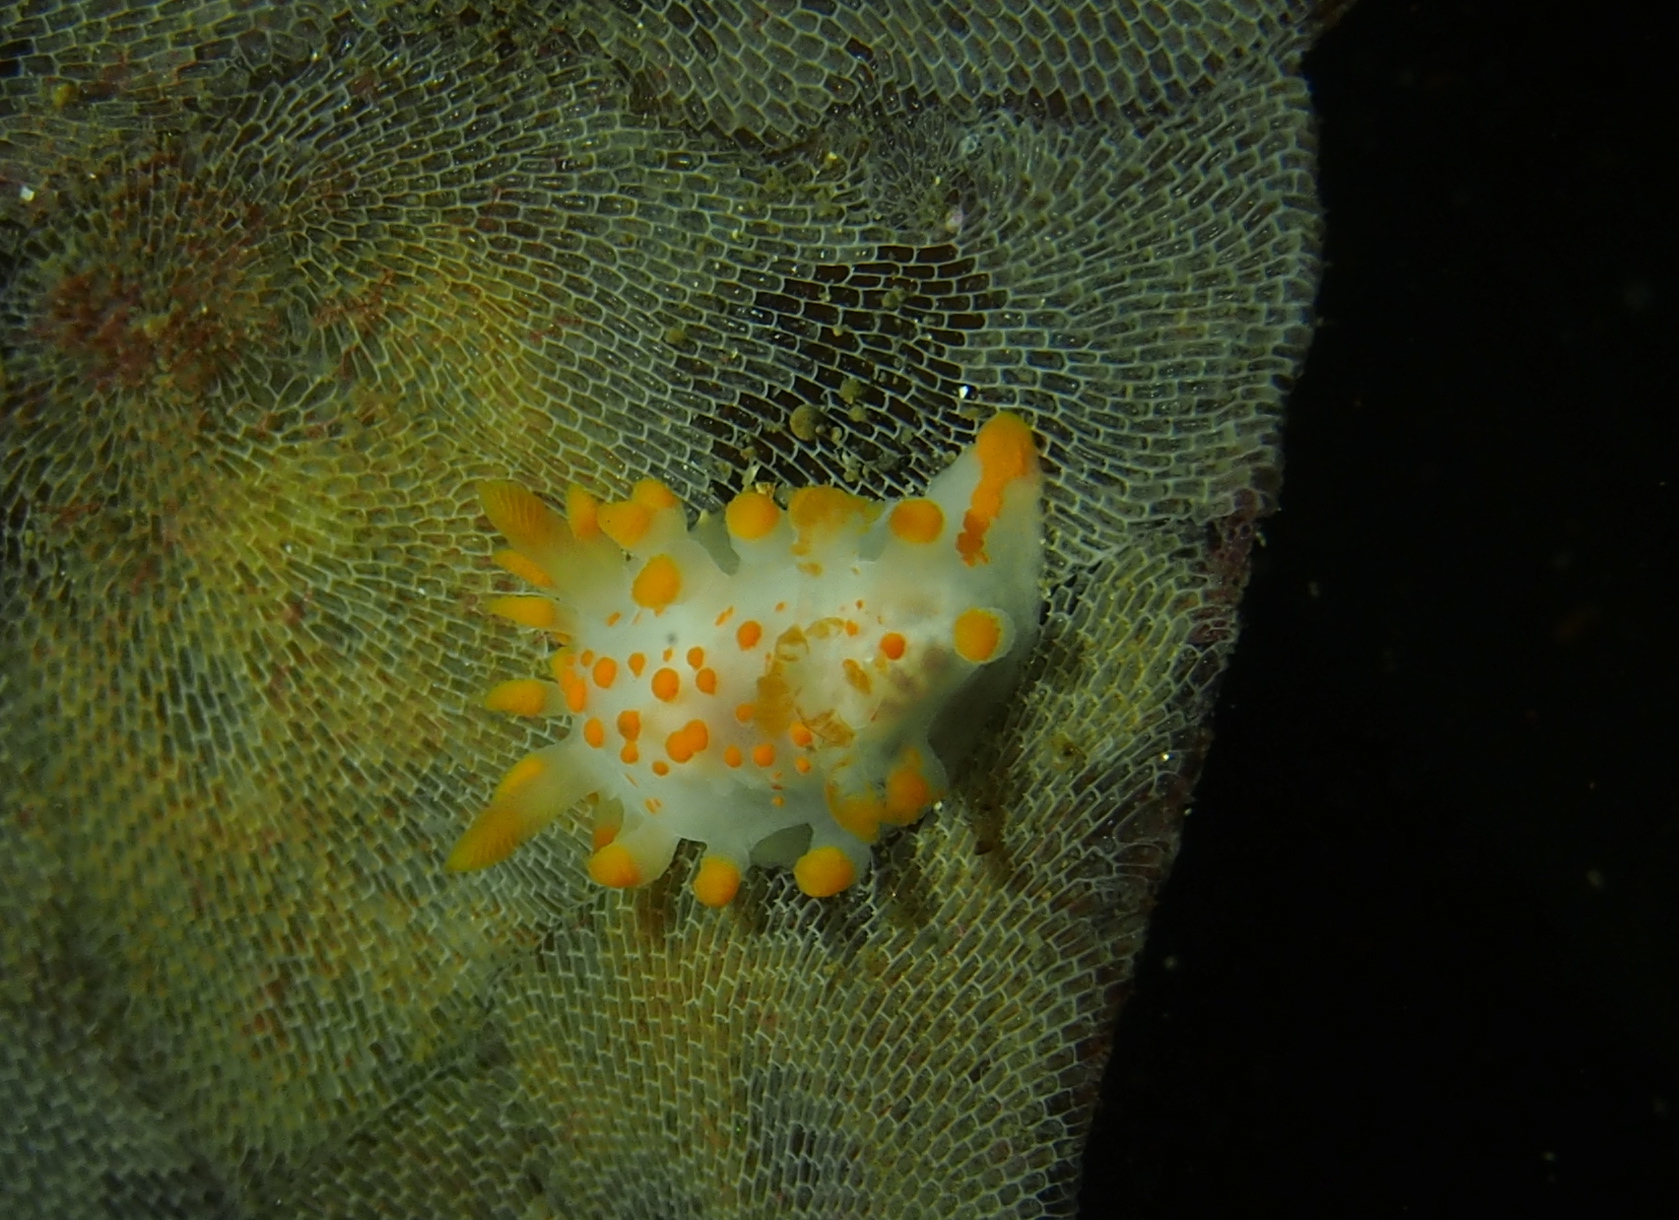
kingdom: Animalia
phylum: Mollusca
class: Gastropoda
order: Nudibranchia
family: Polyceridae
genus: Limacia
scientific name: Limacia clavigera
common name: Orange-clubbed sea slug
